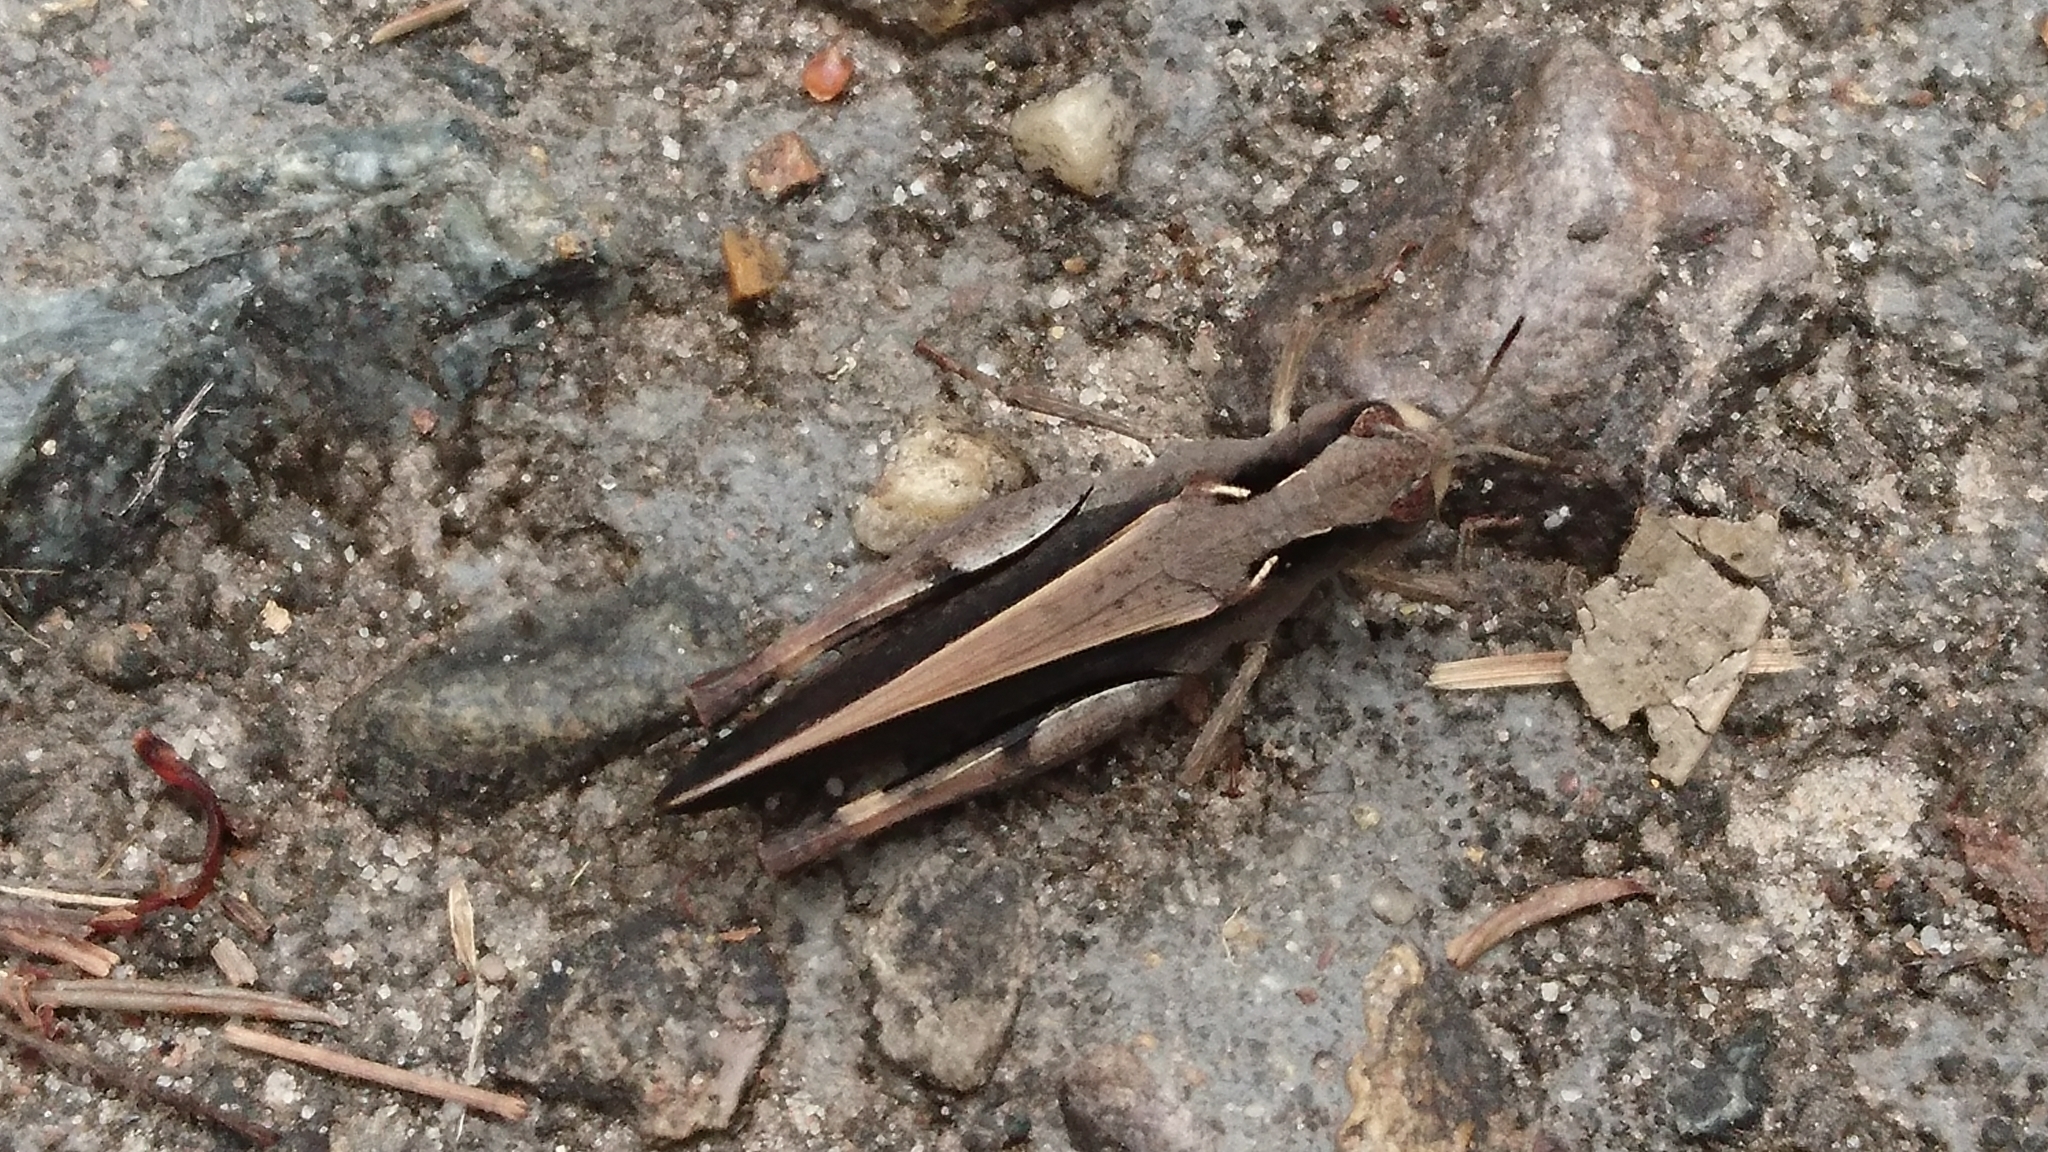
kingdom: Animalia
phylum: Arthropoda
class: Insecta
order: Orthoptera
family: Acrididae
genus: Cryptobothrus
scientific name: Cryptobothrus chrysophorus
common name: Golden bandwing
